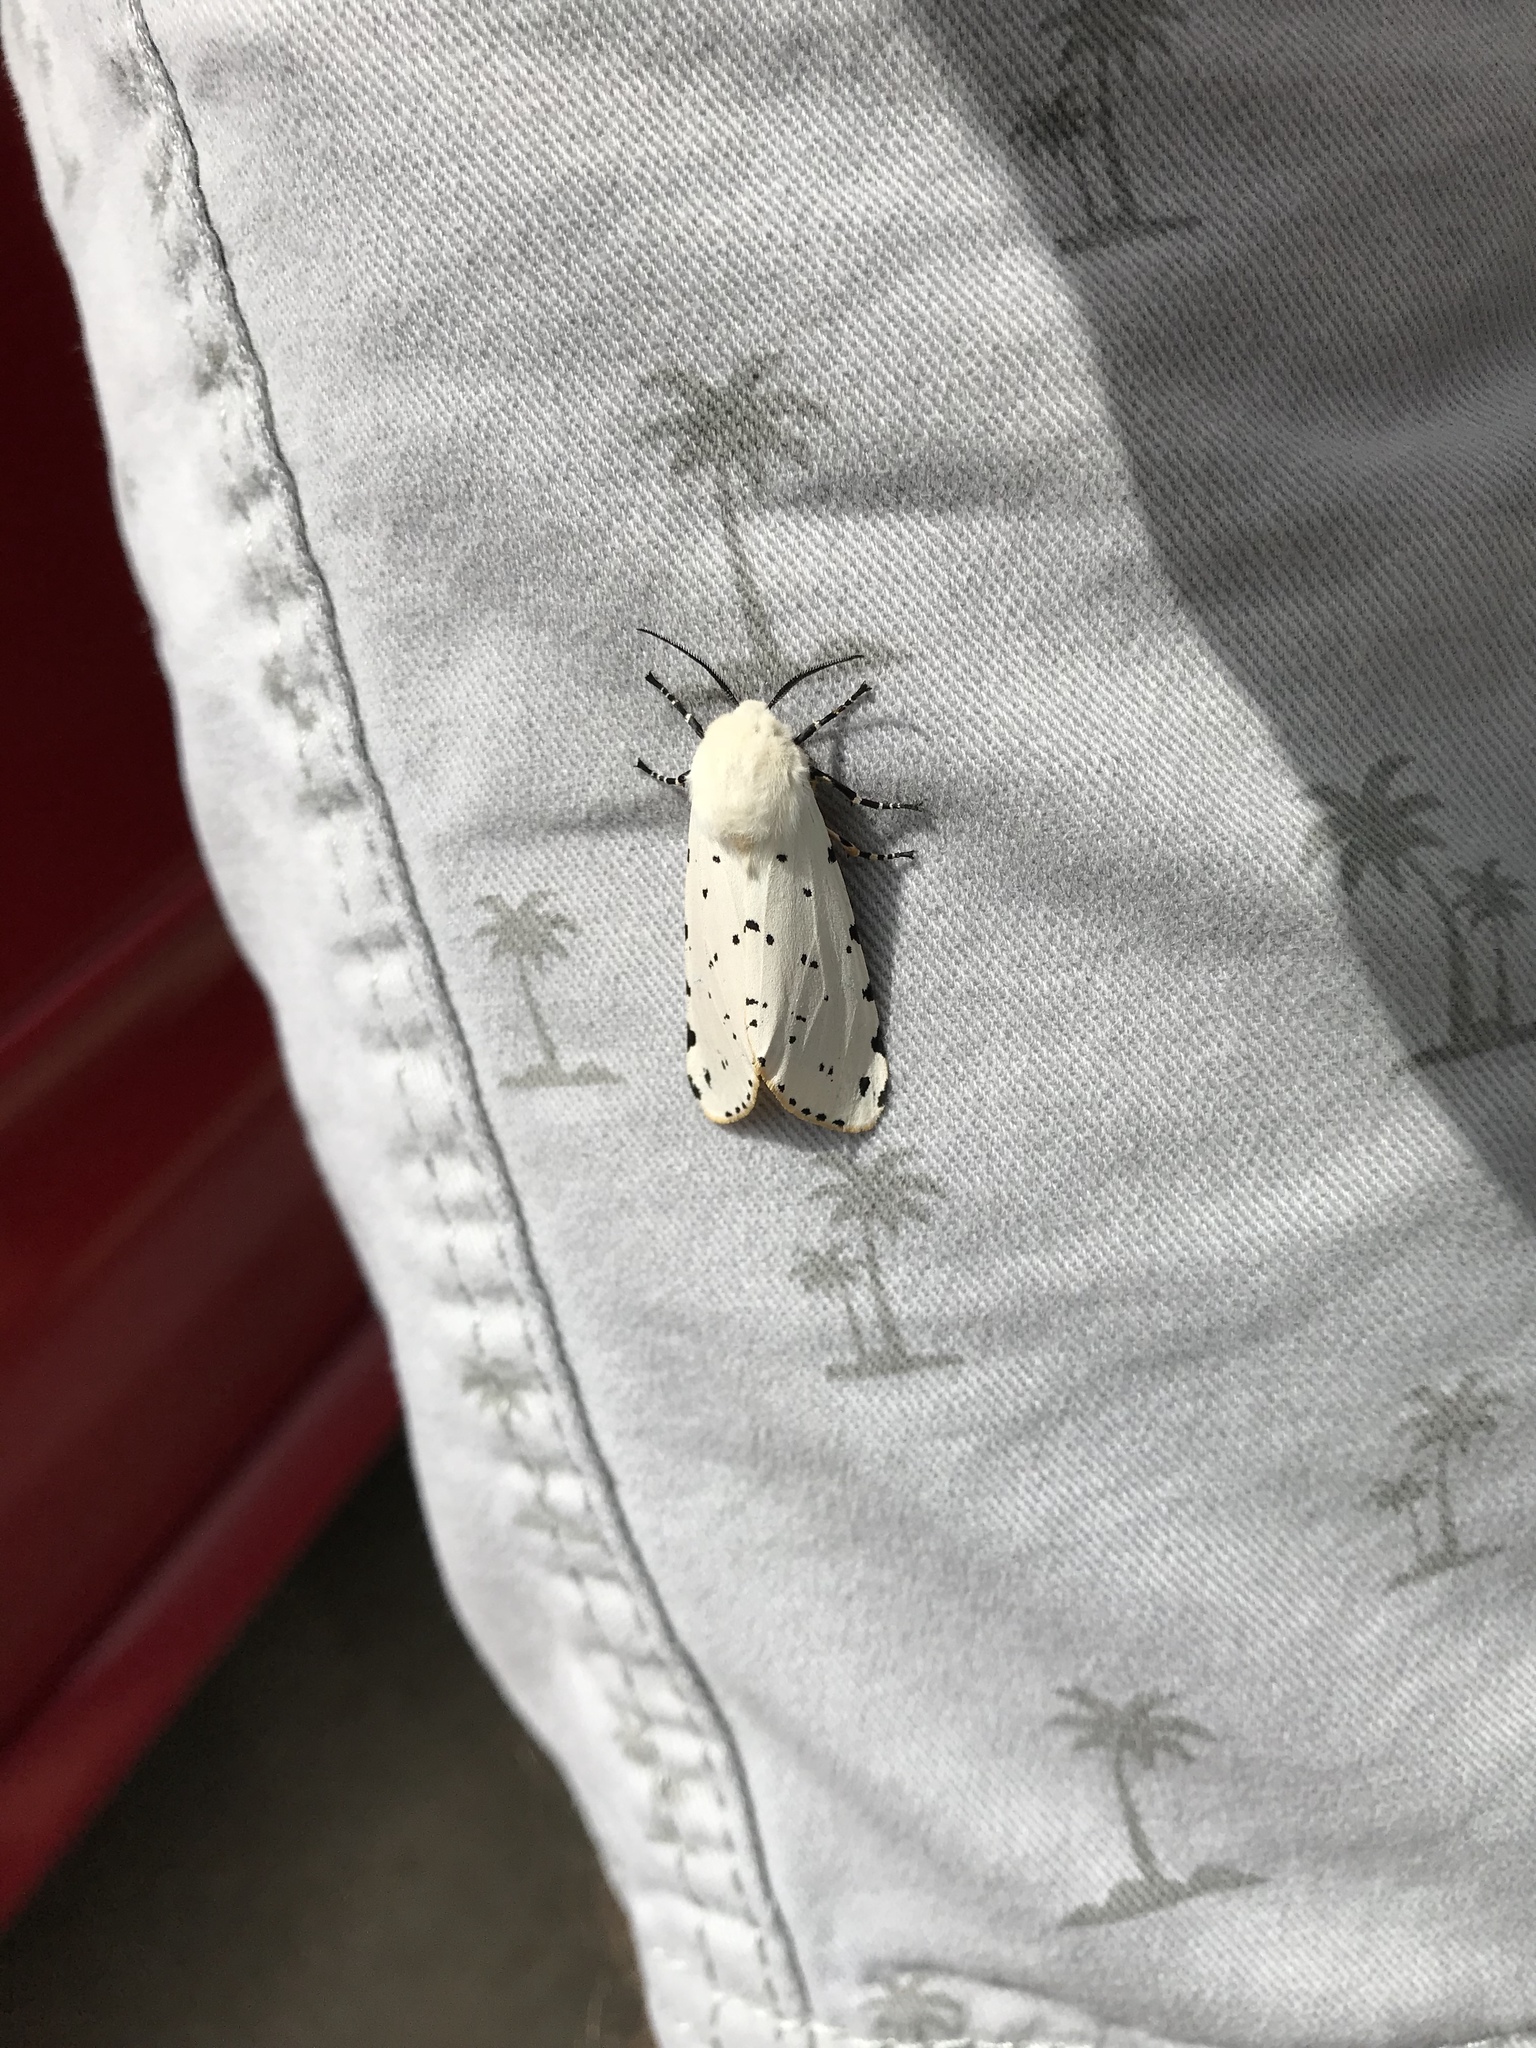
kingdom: Animalia
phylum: Arthropoda
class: Insecta
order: Lepidoptera
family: Erebidae
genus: Estigmene
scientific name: Estigmene acrea
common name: Salt marsh moth
